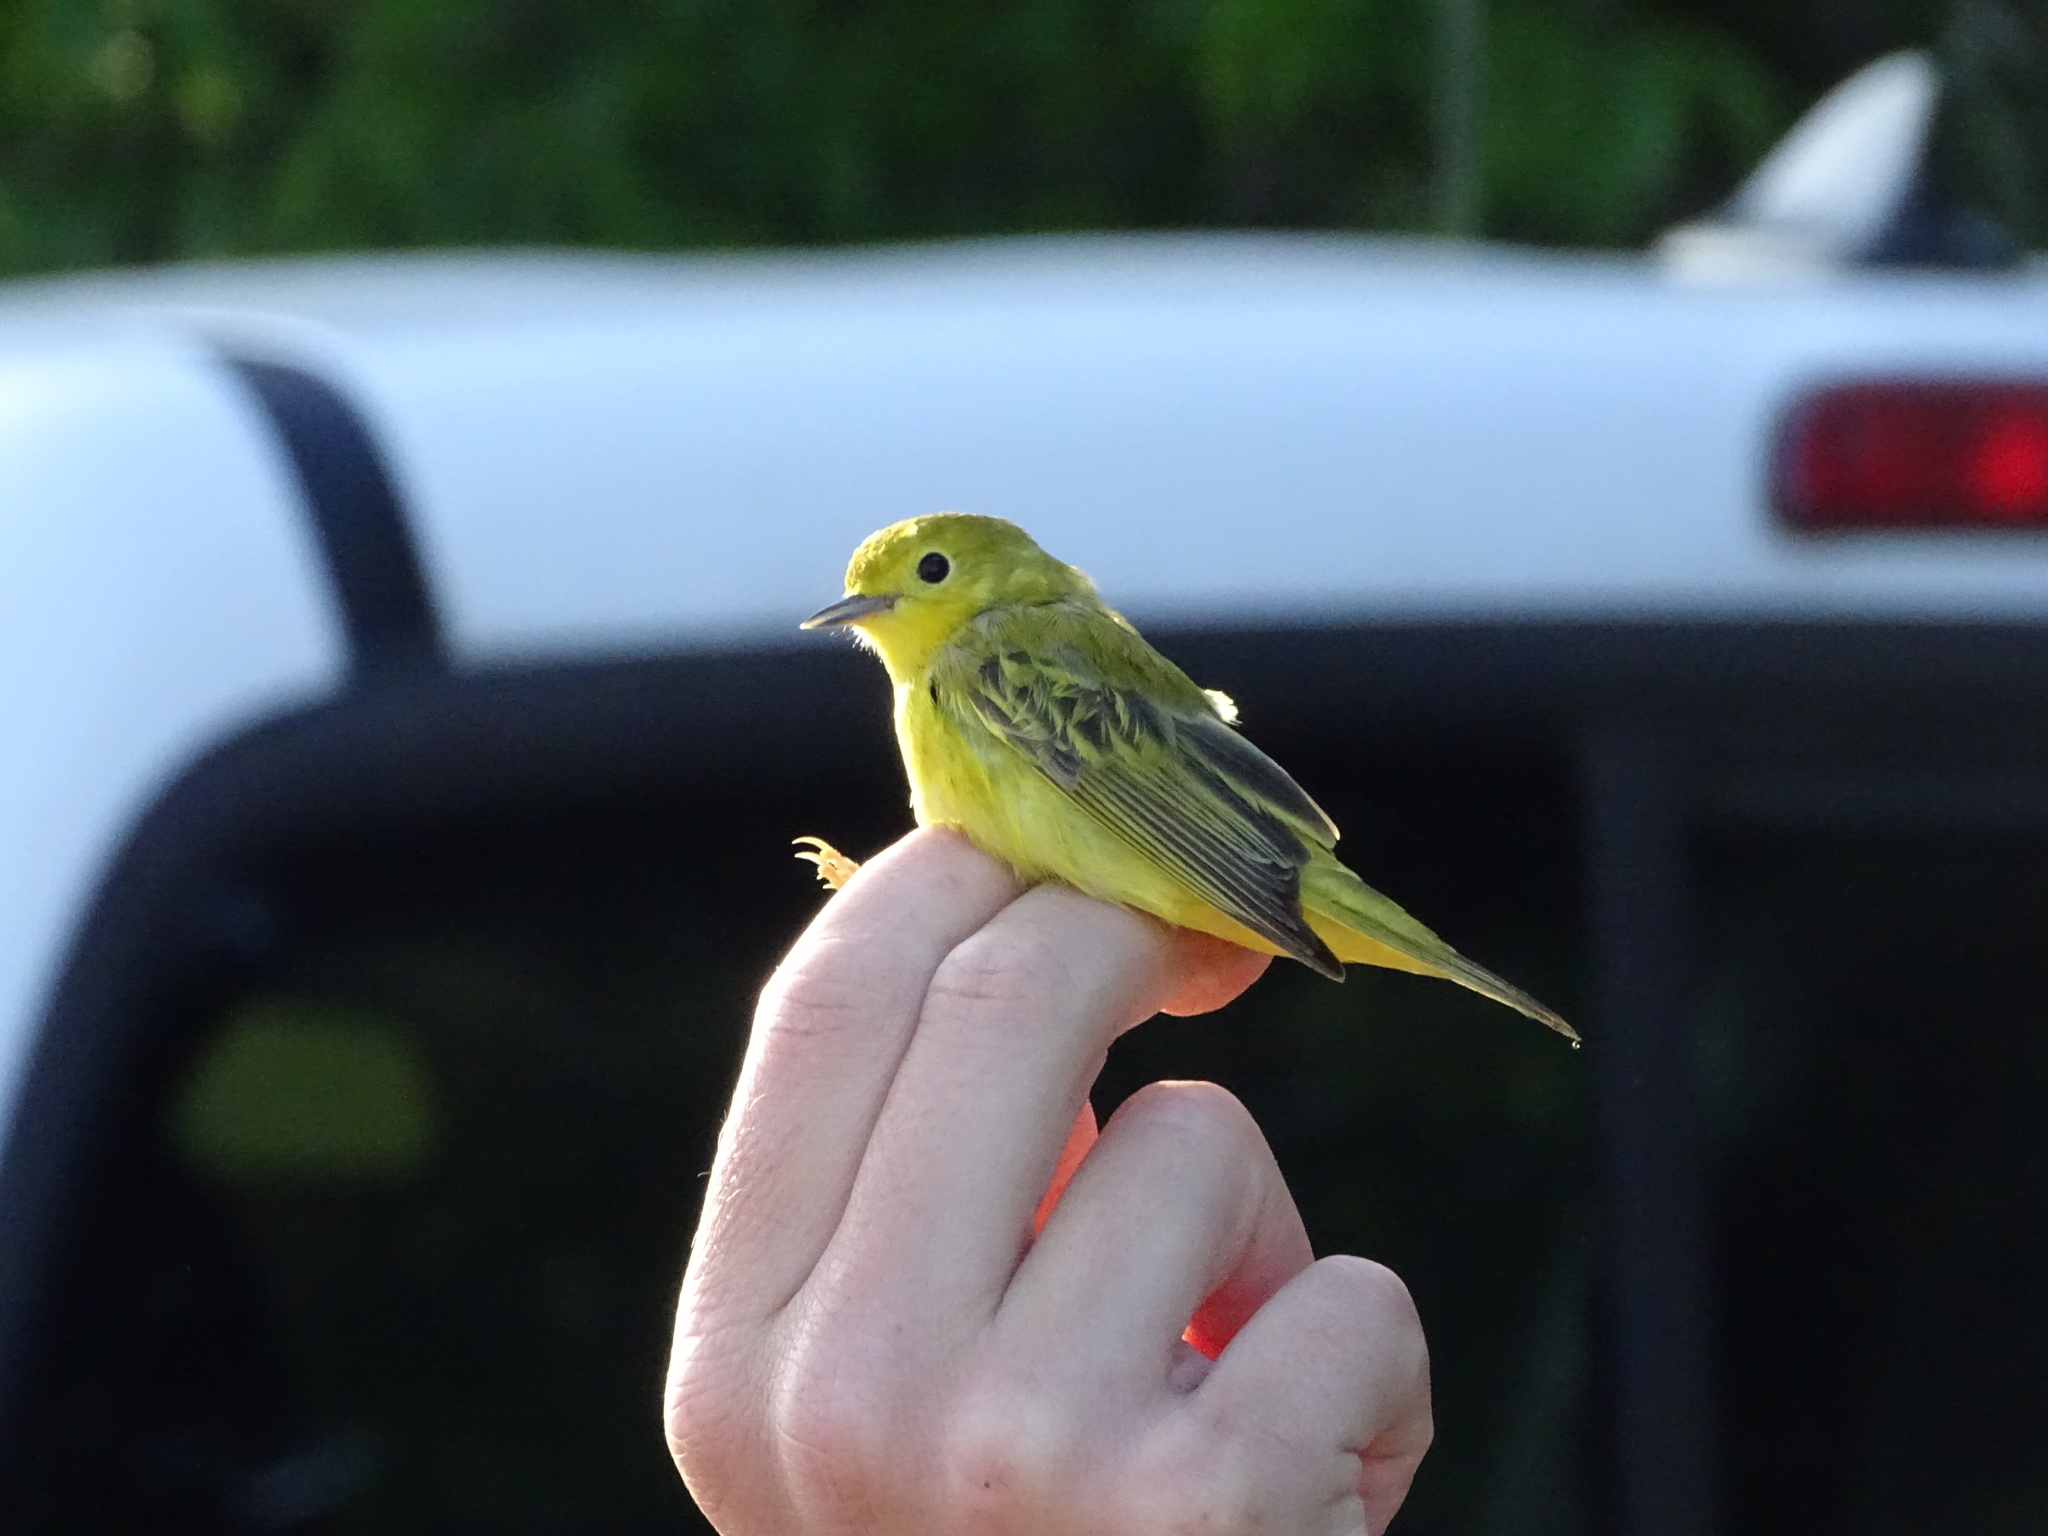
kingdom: Animalia
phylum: Chordata
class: Aves
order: Passeriformes
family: Parulidae
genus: Setophaga
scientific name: Setophaga petechia
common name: Yellow warbler
